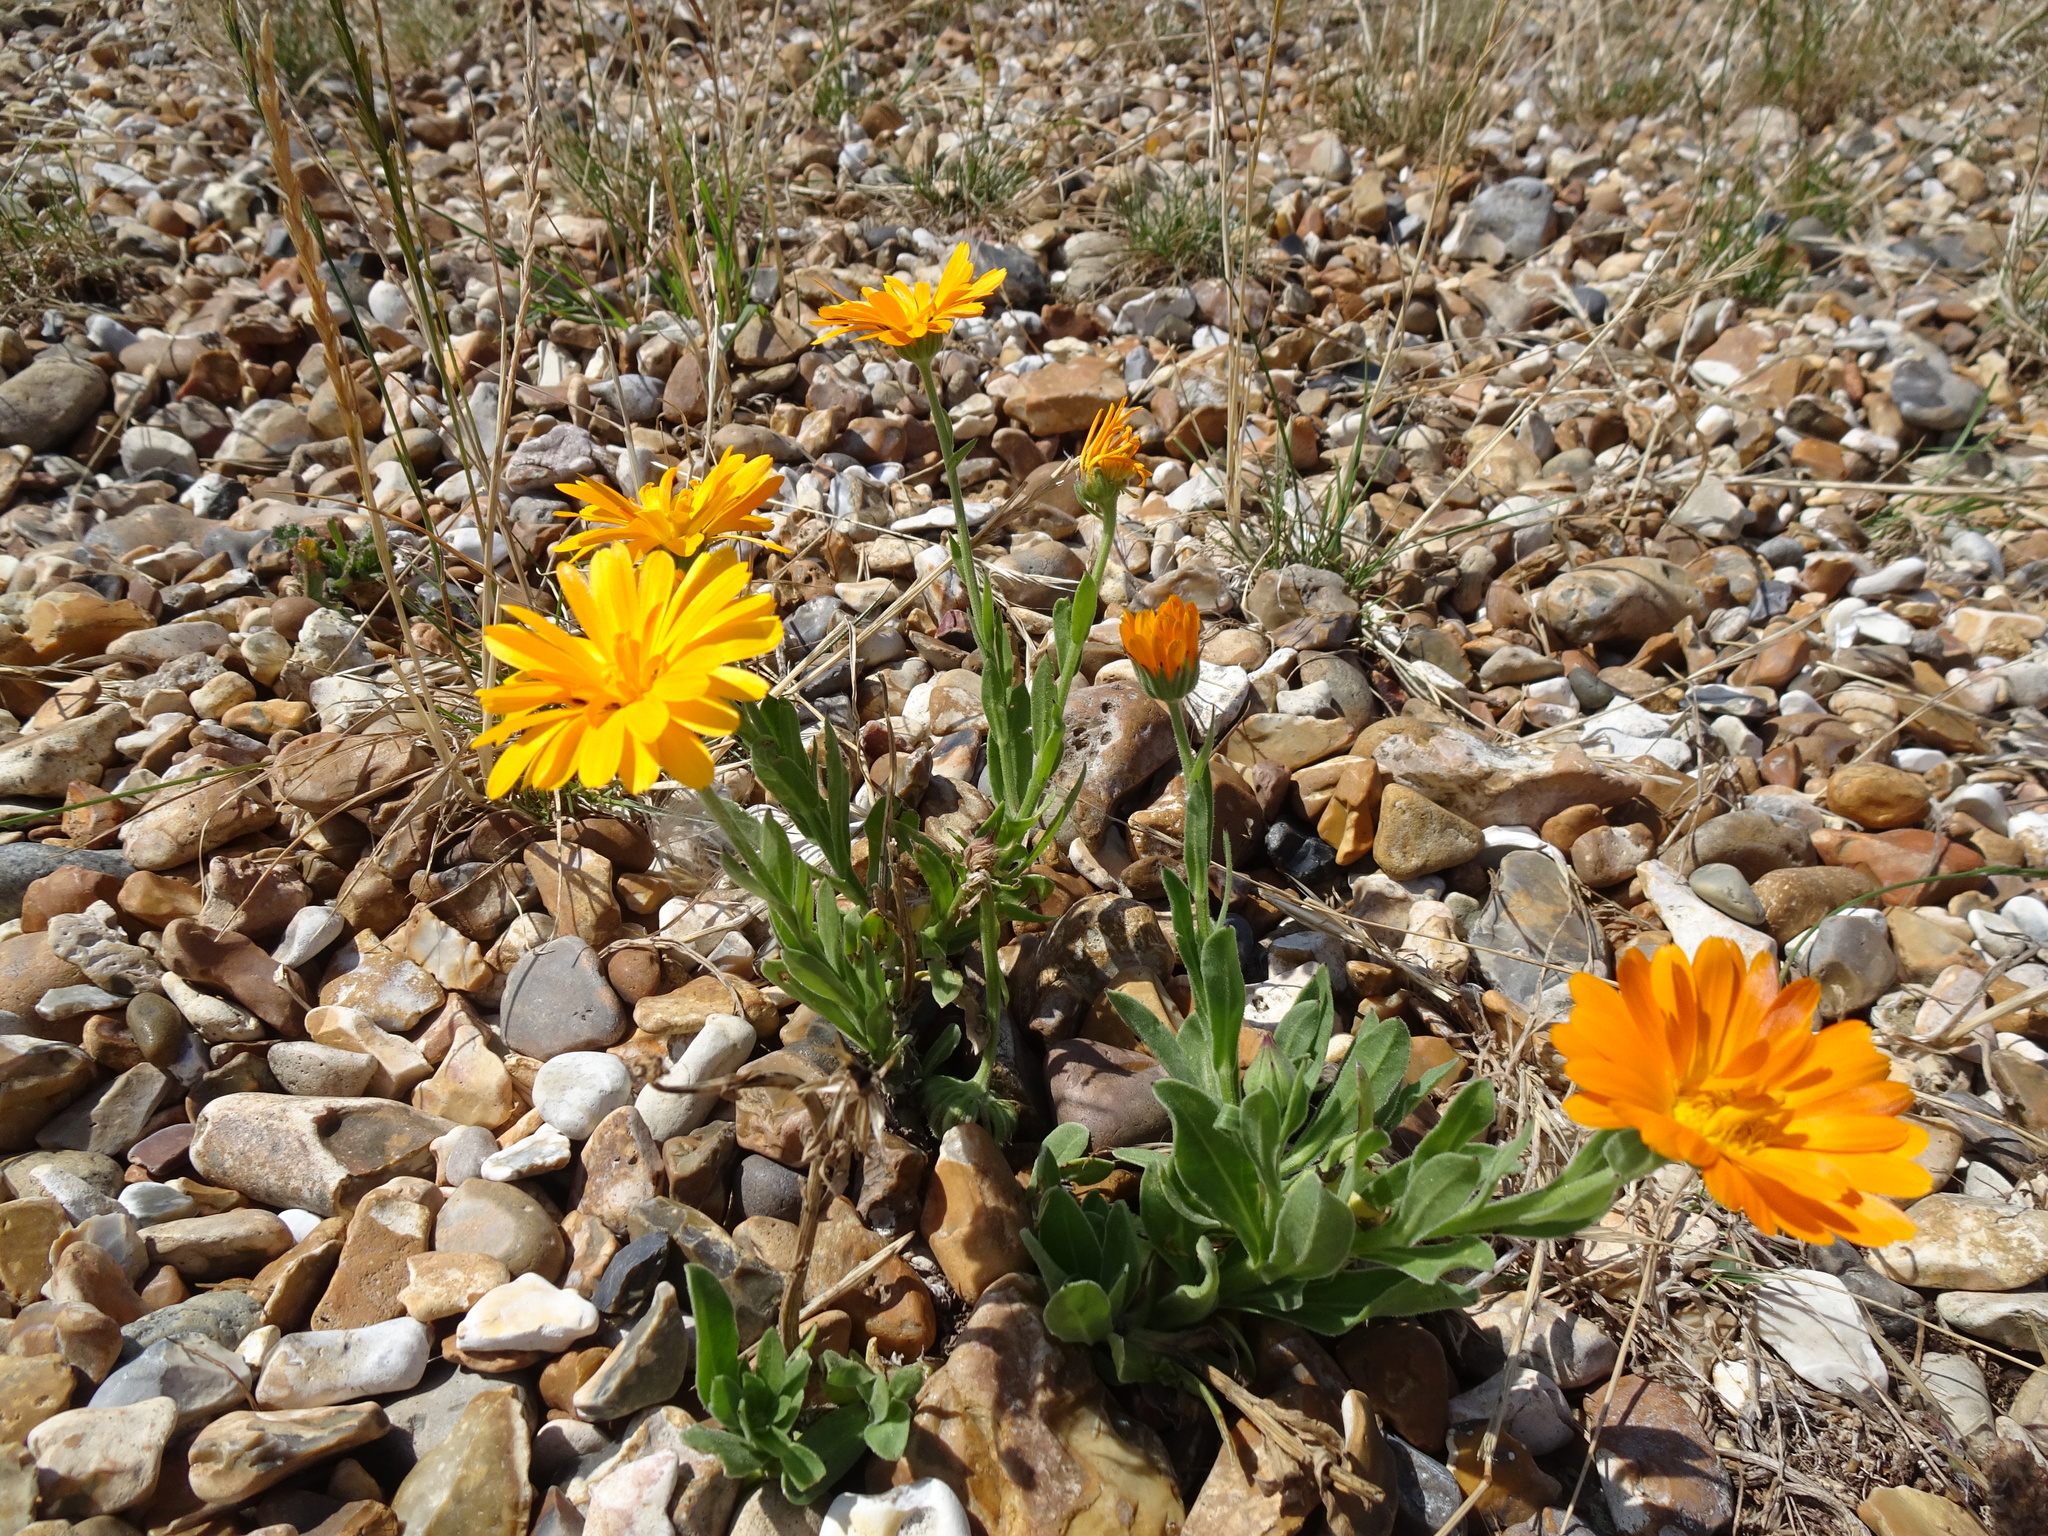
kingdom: Plantae
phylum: Tracheophyta
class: Magnoliopsida
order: Asterales
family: Asteraceae
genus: Calendula
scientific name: Calendula officinalis
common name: Pot marigold
